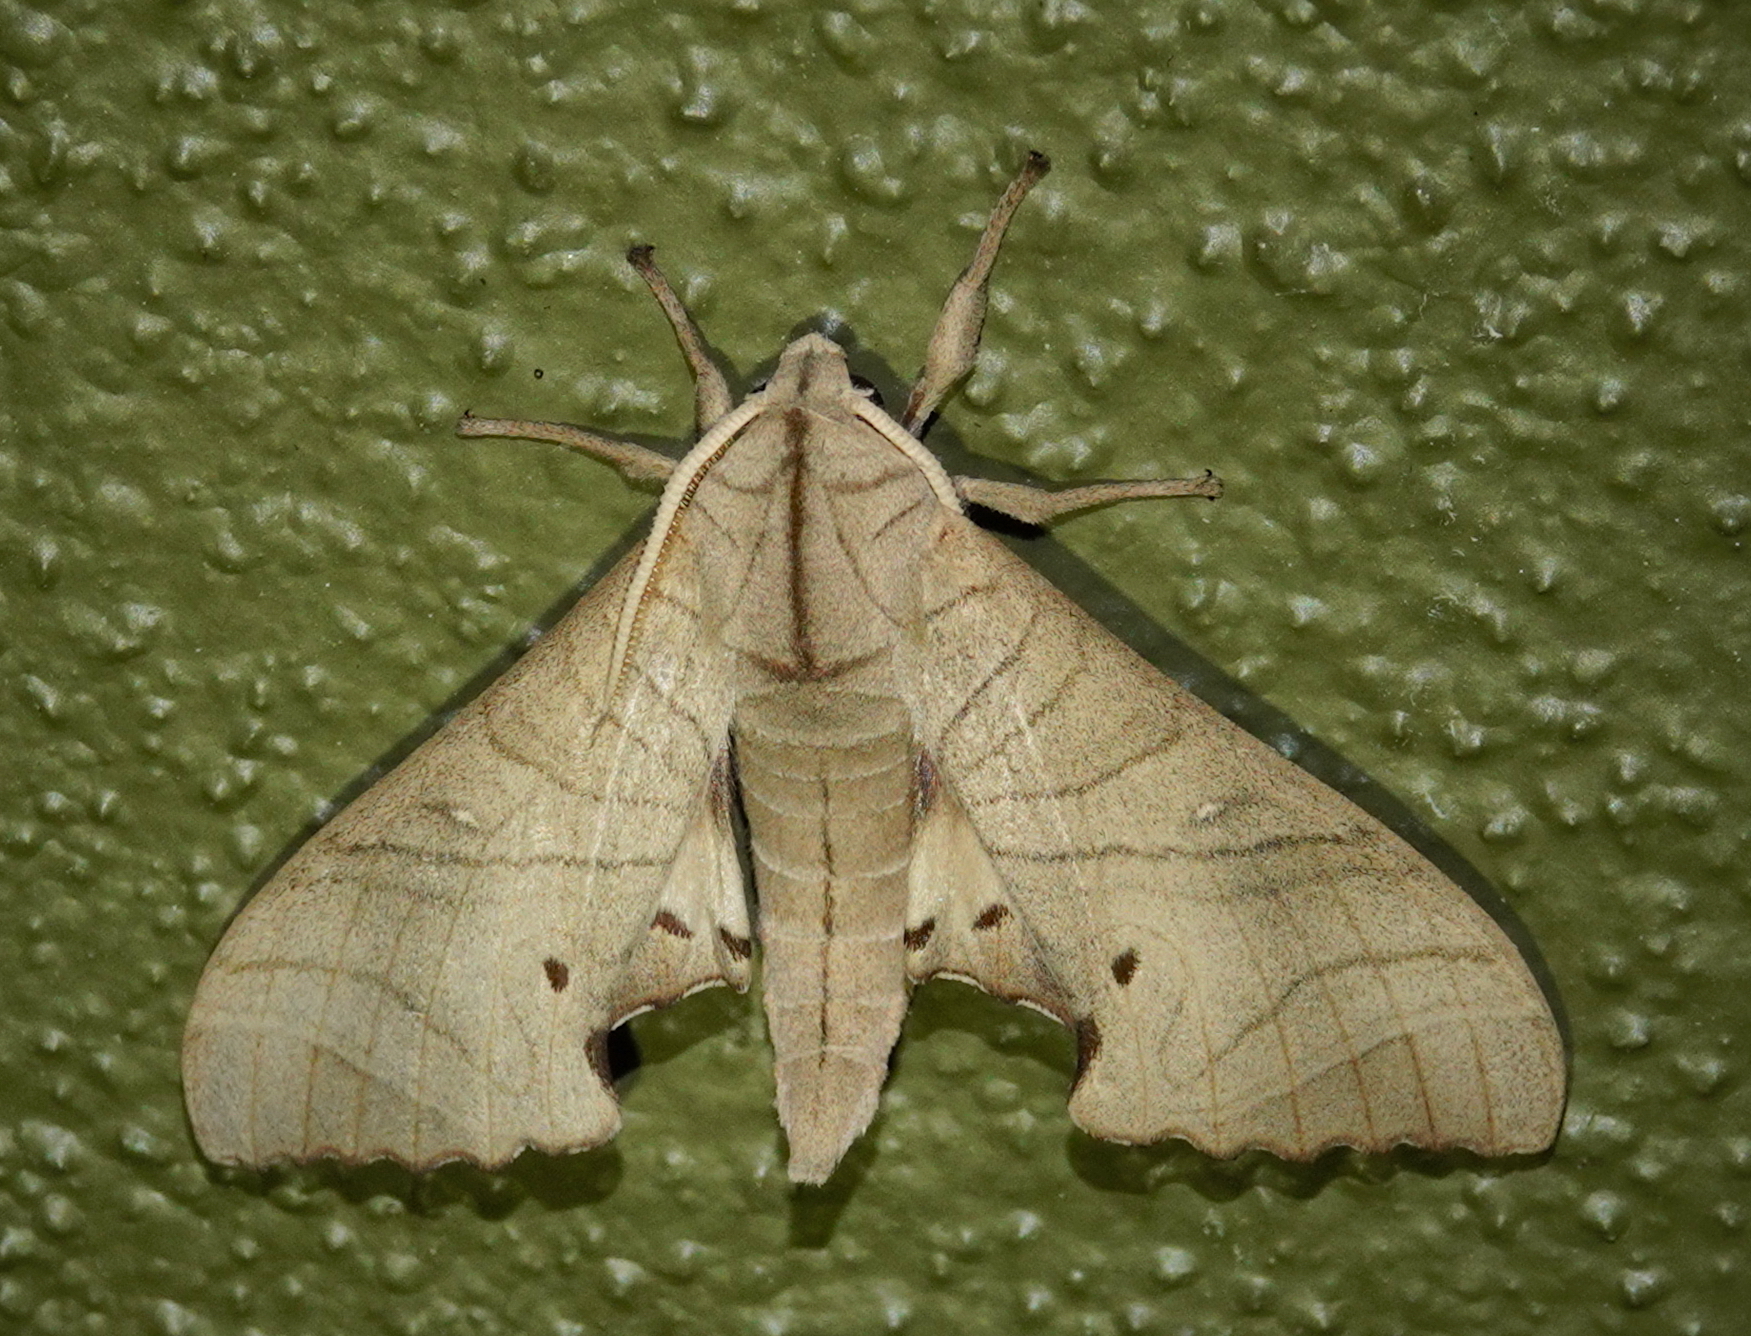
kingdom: Animalia
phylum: Arthropoda
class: Insecta
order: Lepidoptera
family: Sphingidae
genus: Marumba
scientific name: Marumba dyras
